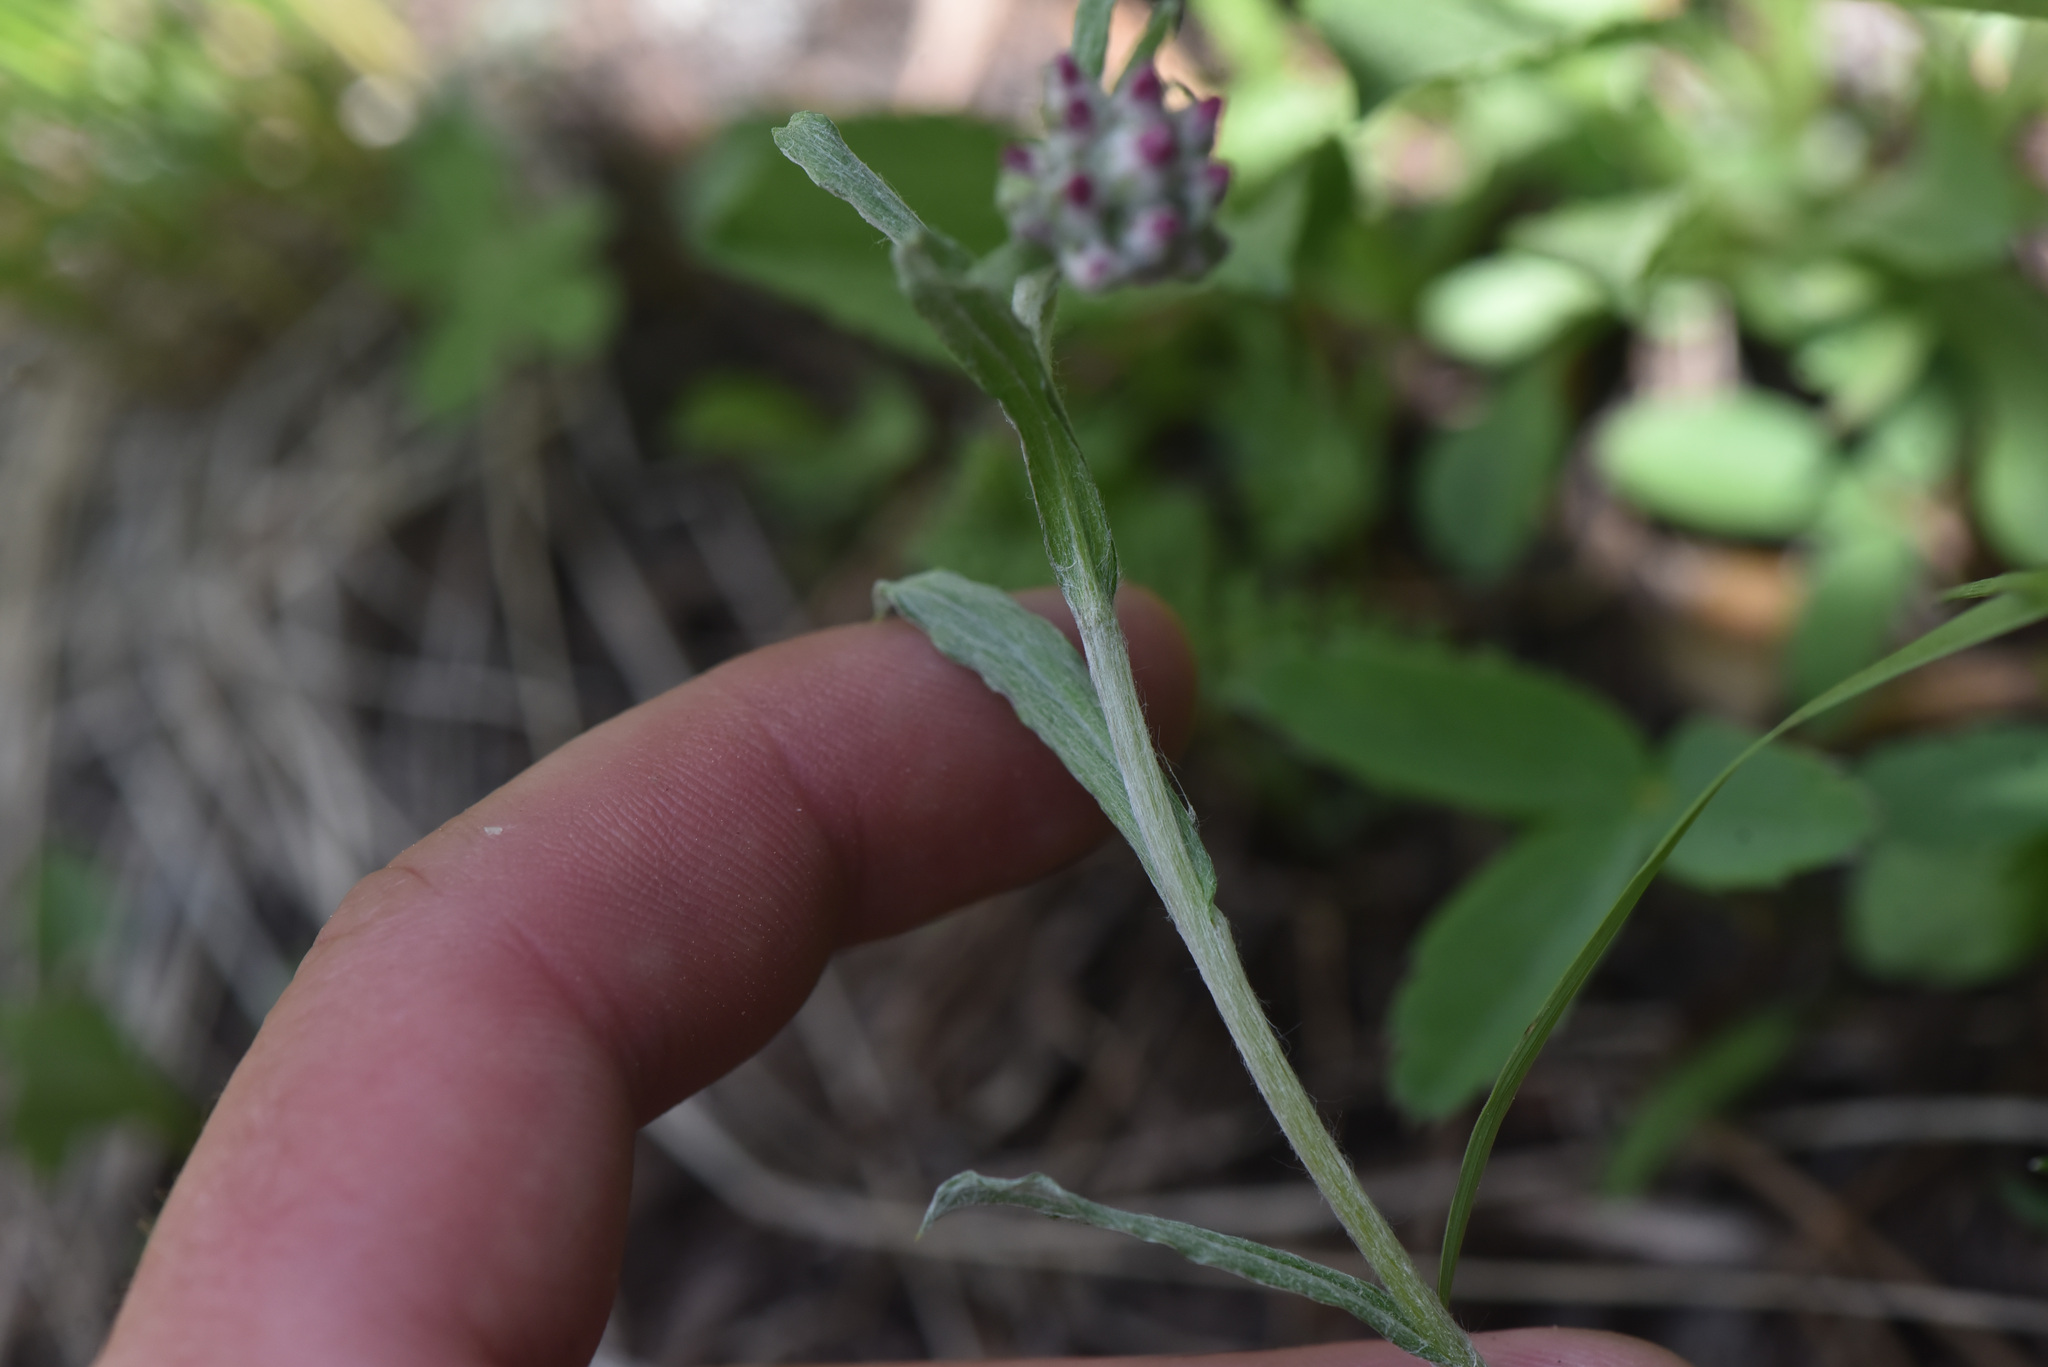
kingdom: Plantae
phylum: Tracheophyta
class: Magnoliopsida
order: Asterales
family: Asteraceae
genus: Antennaria
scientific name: Antennaria rosea
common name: Rosy pussytoes
